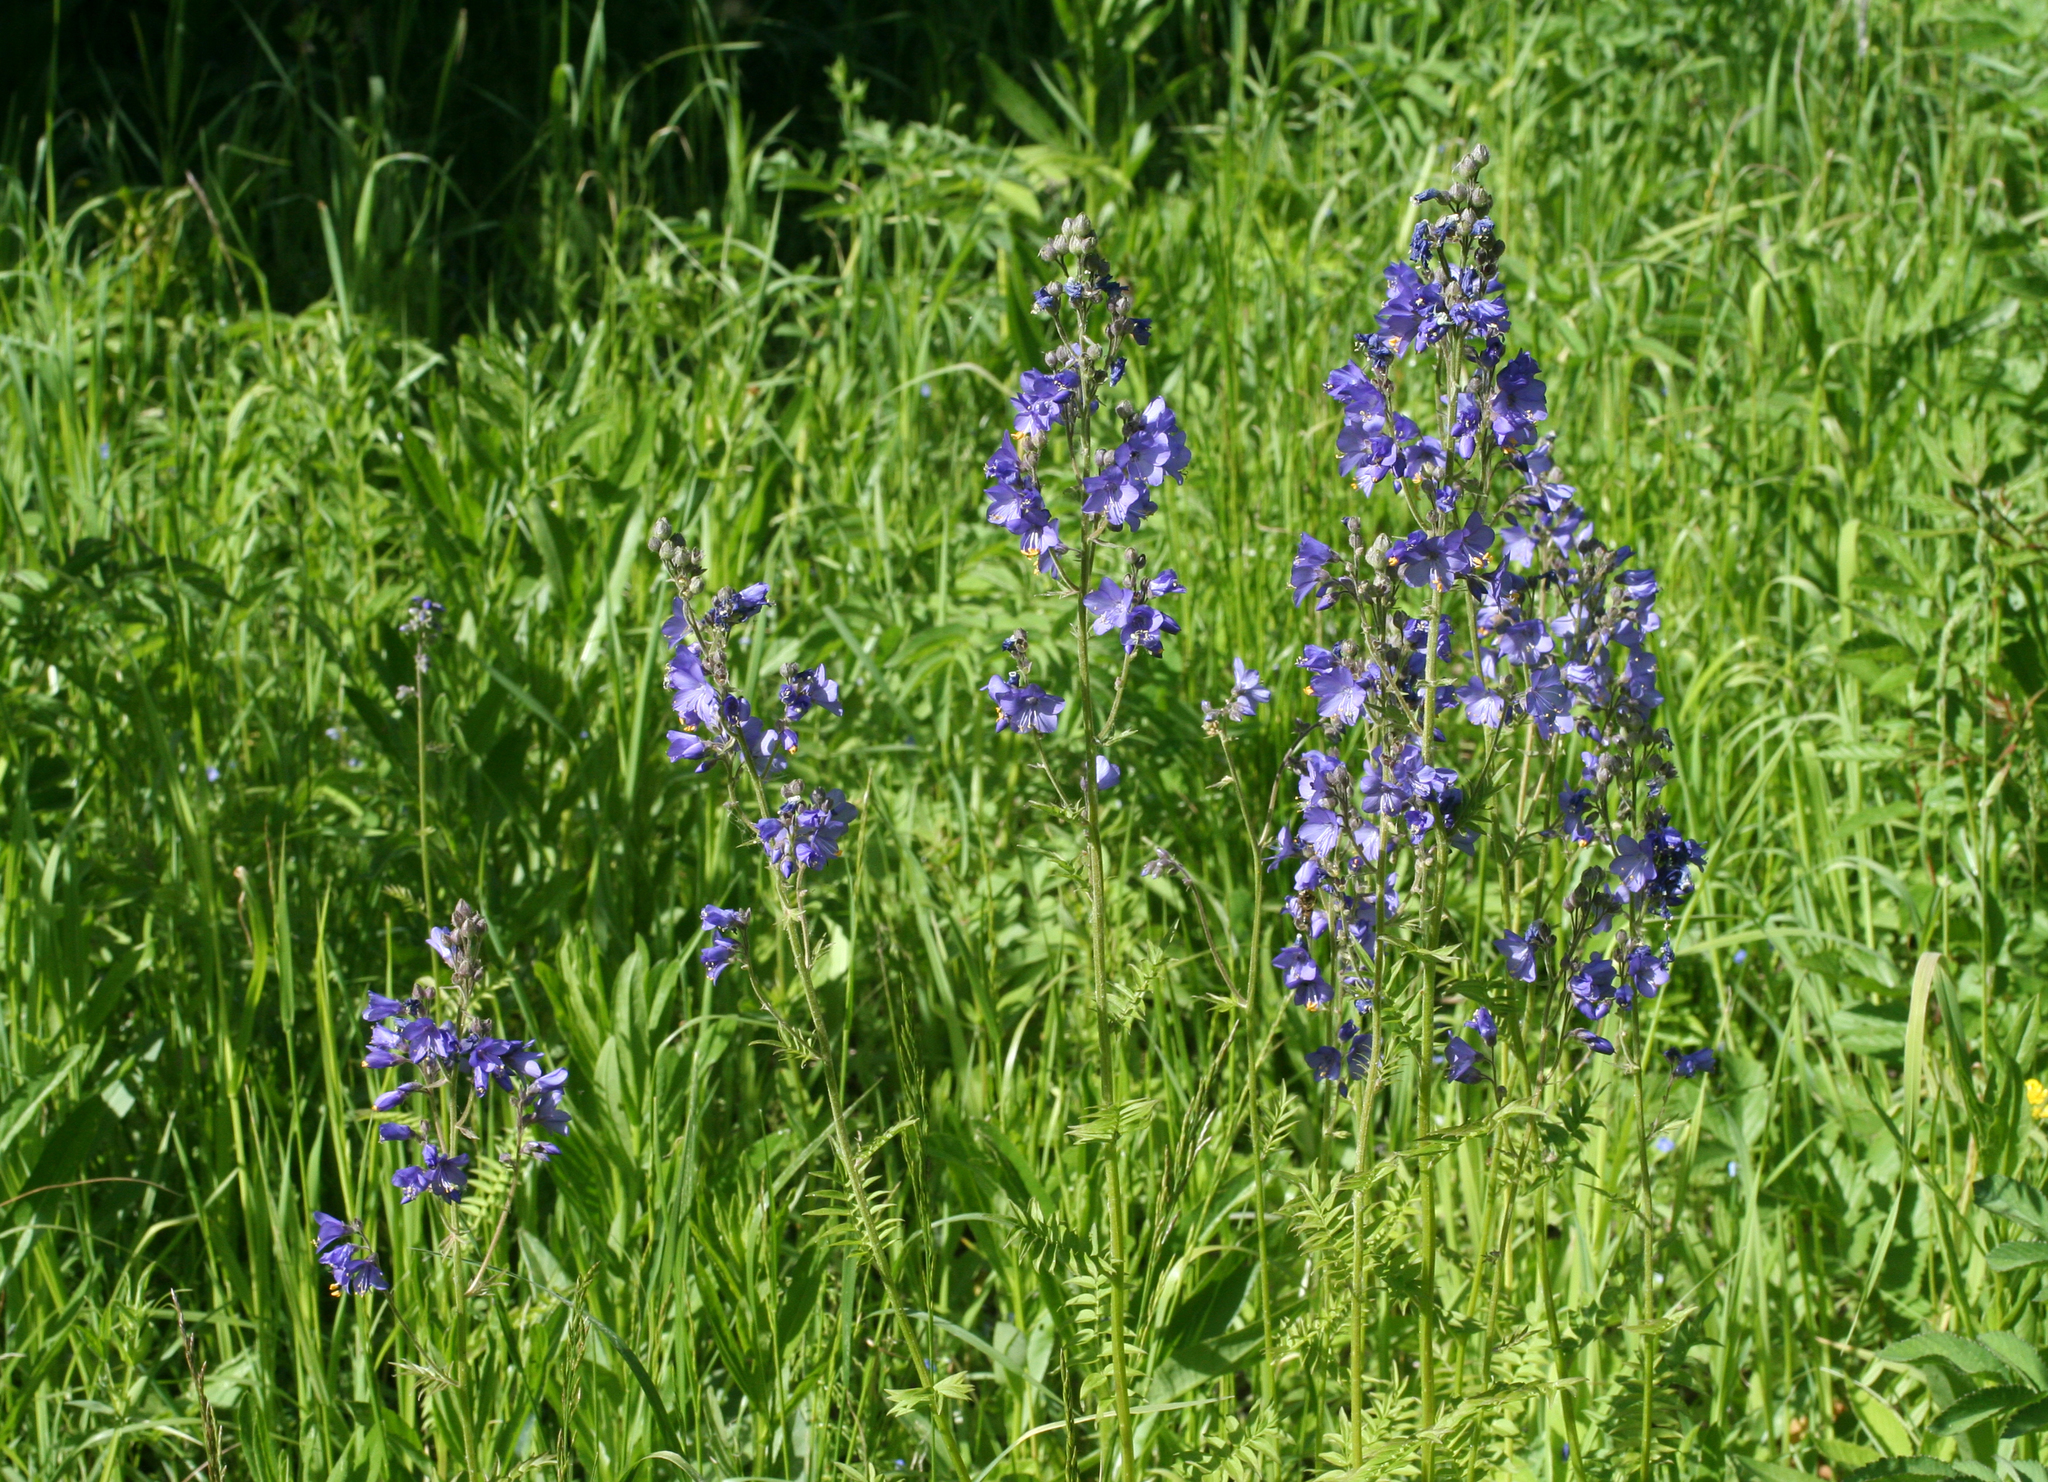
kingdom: Plantae
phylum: Tracheophyta
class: Magnoliopsida
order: Ericales
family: Polemoniaceae
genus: Polemonium
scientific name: Polemonium caeruleum
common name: Jacob's-ladder
